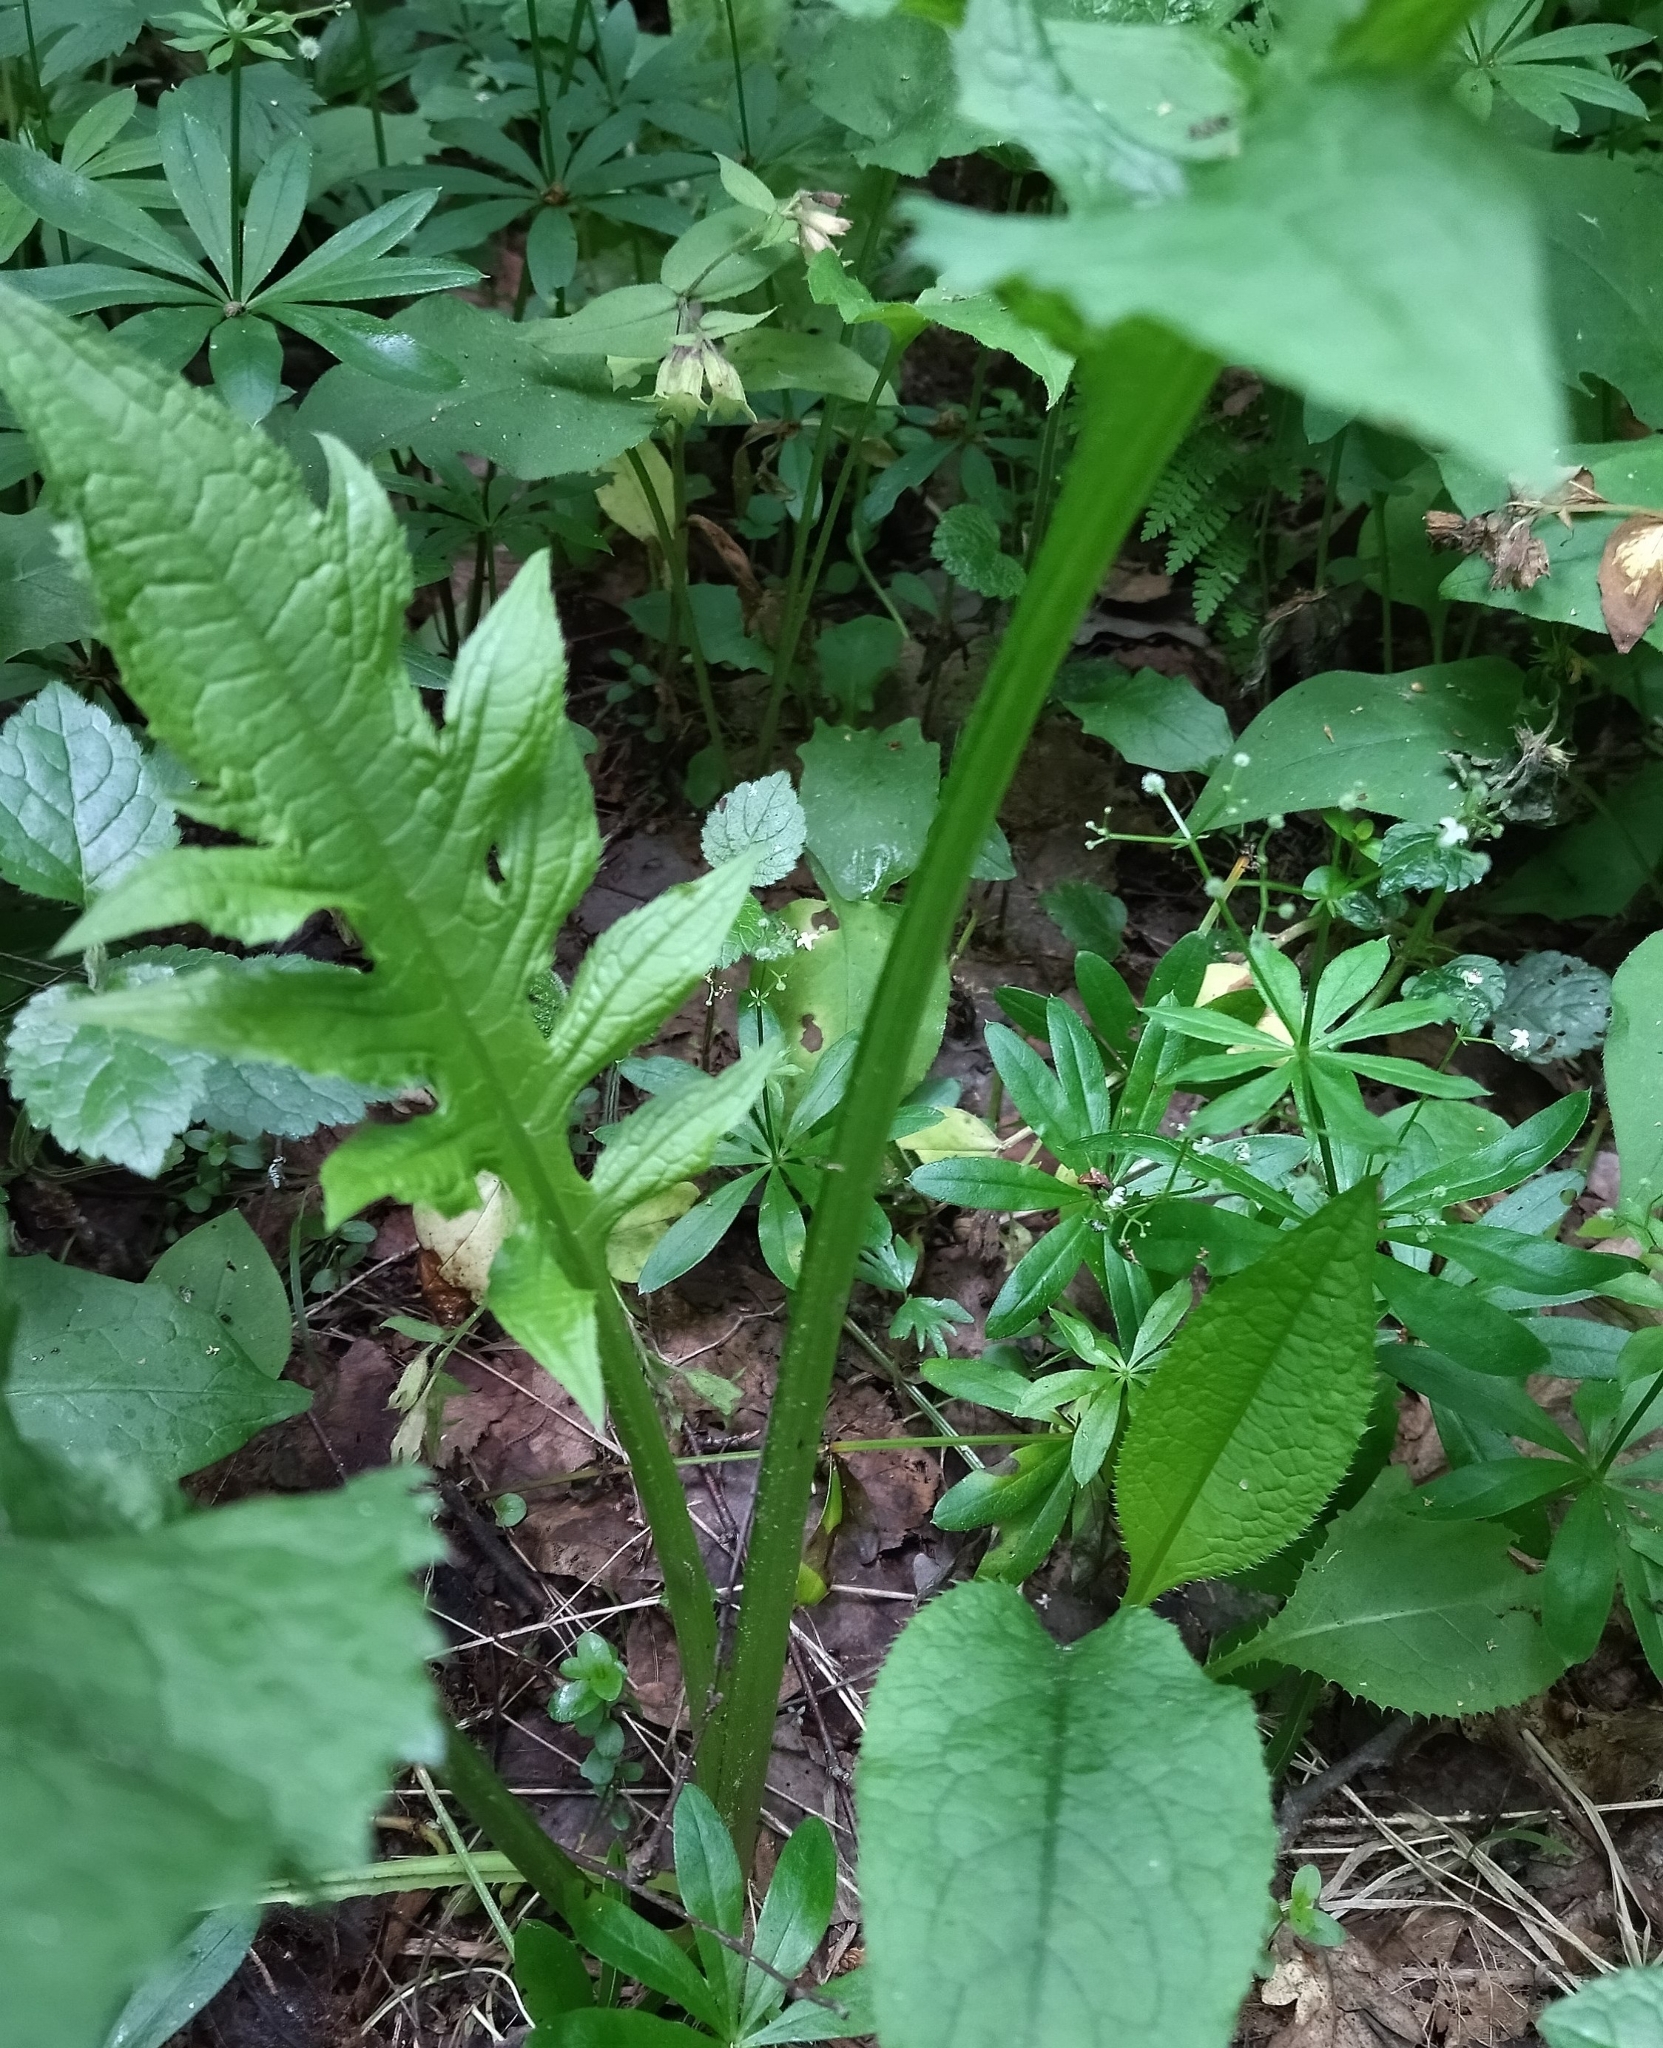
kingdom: Plantae
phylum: Tracheophyta
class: Magnoliopsida
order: Asterales
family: Asteraceae
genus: Cirsium
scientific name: Cirsium oleraceum
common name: Cabbage thistle
